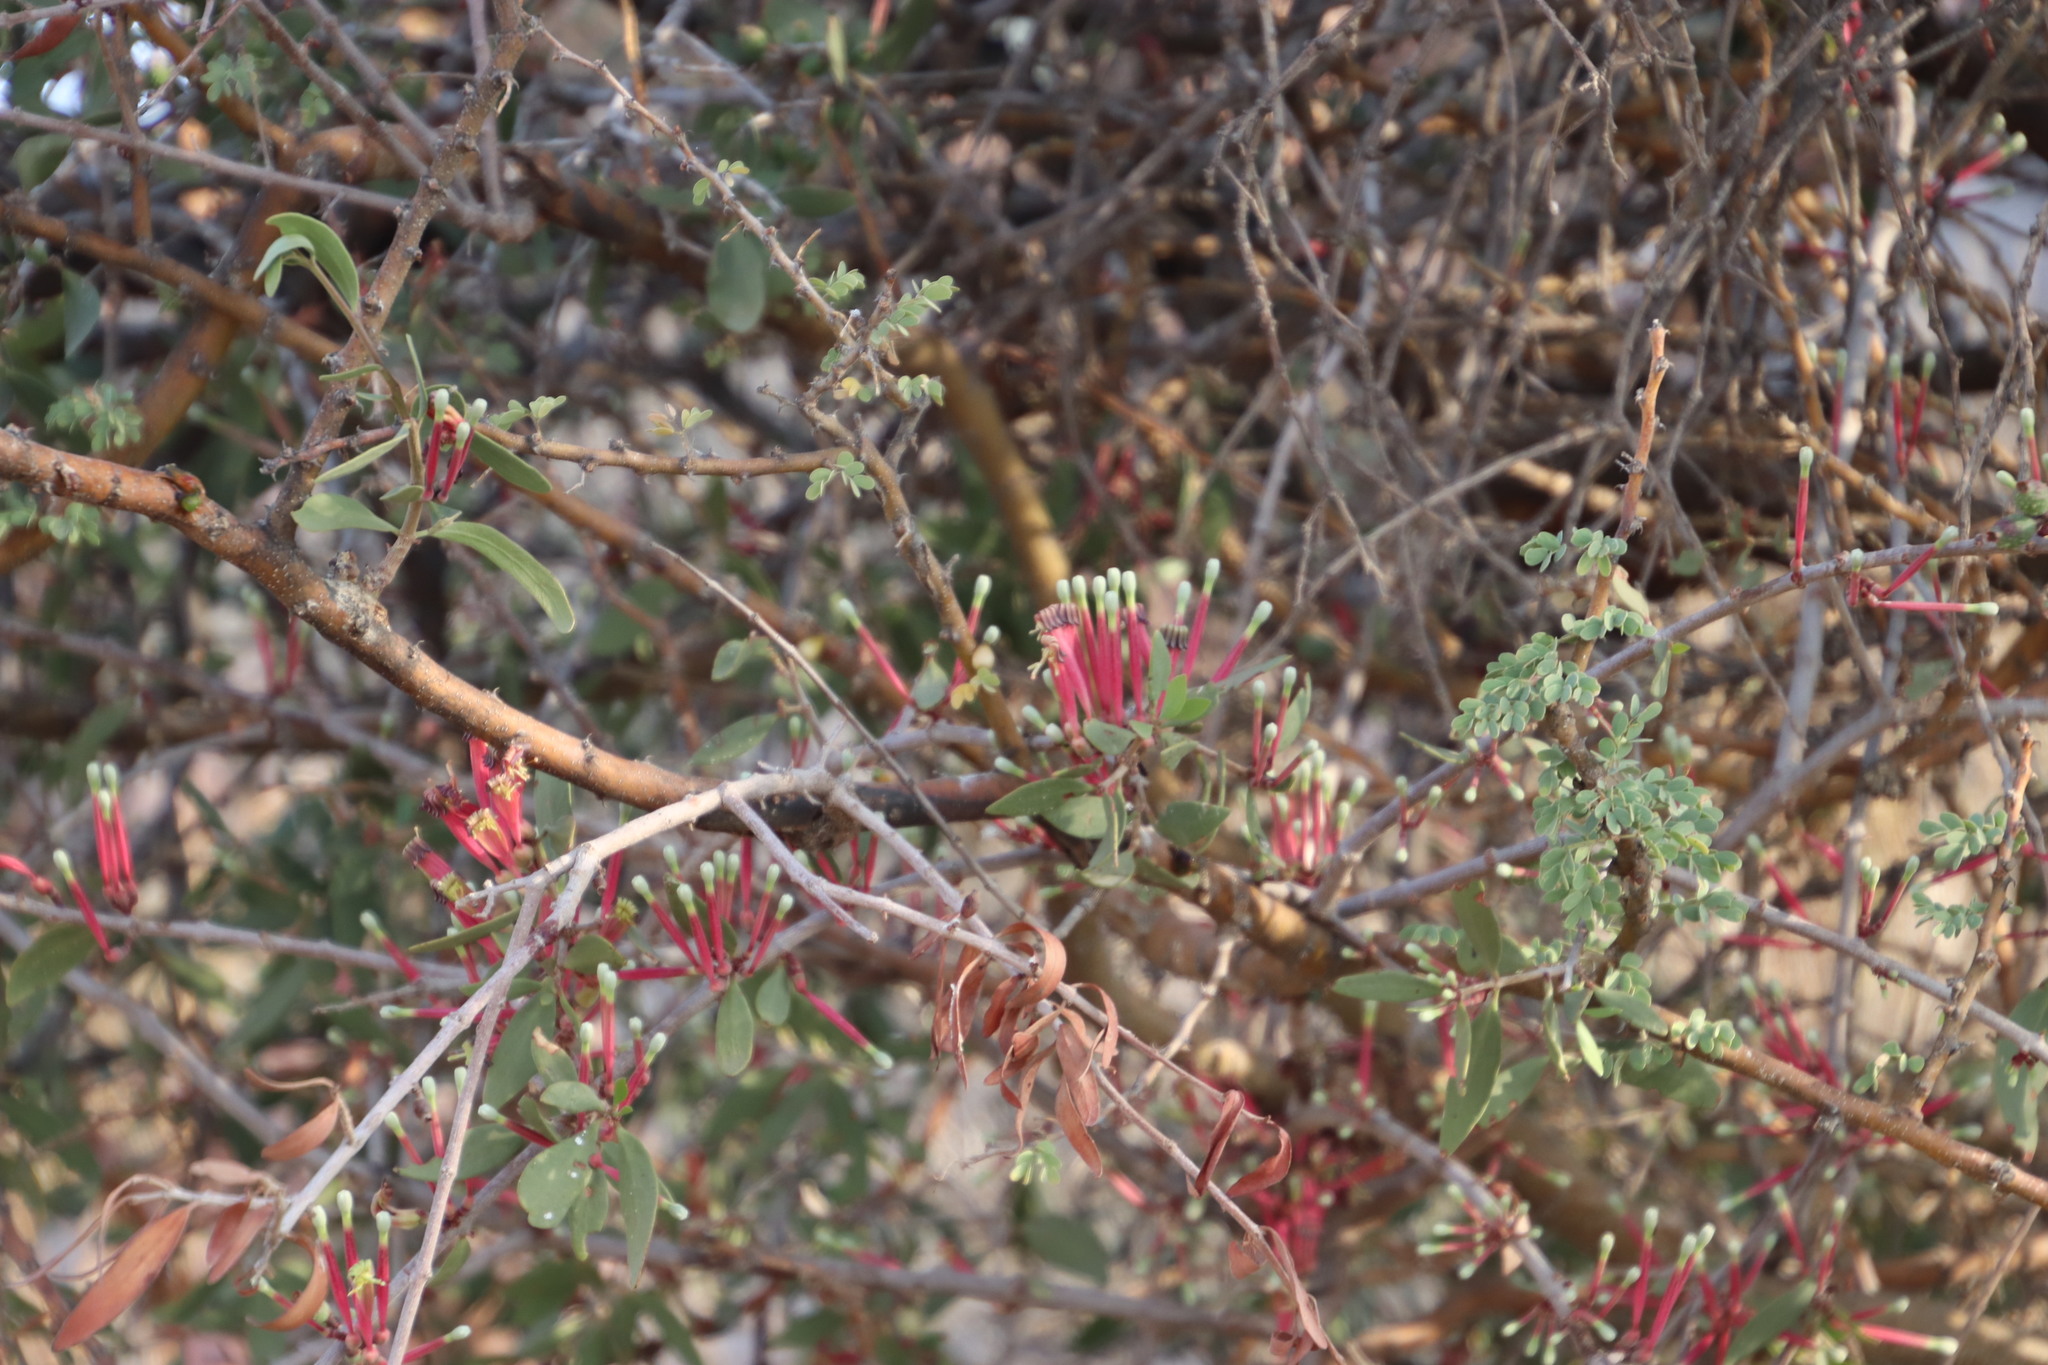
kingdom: Plantae
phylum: Tracheophyta
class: Magnoliopsida
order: Santalales
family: Loranthaceae
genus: Tapinanthus
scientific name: Tapinanthus oleifolius
